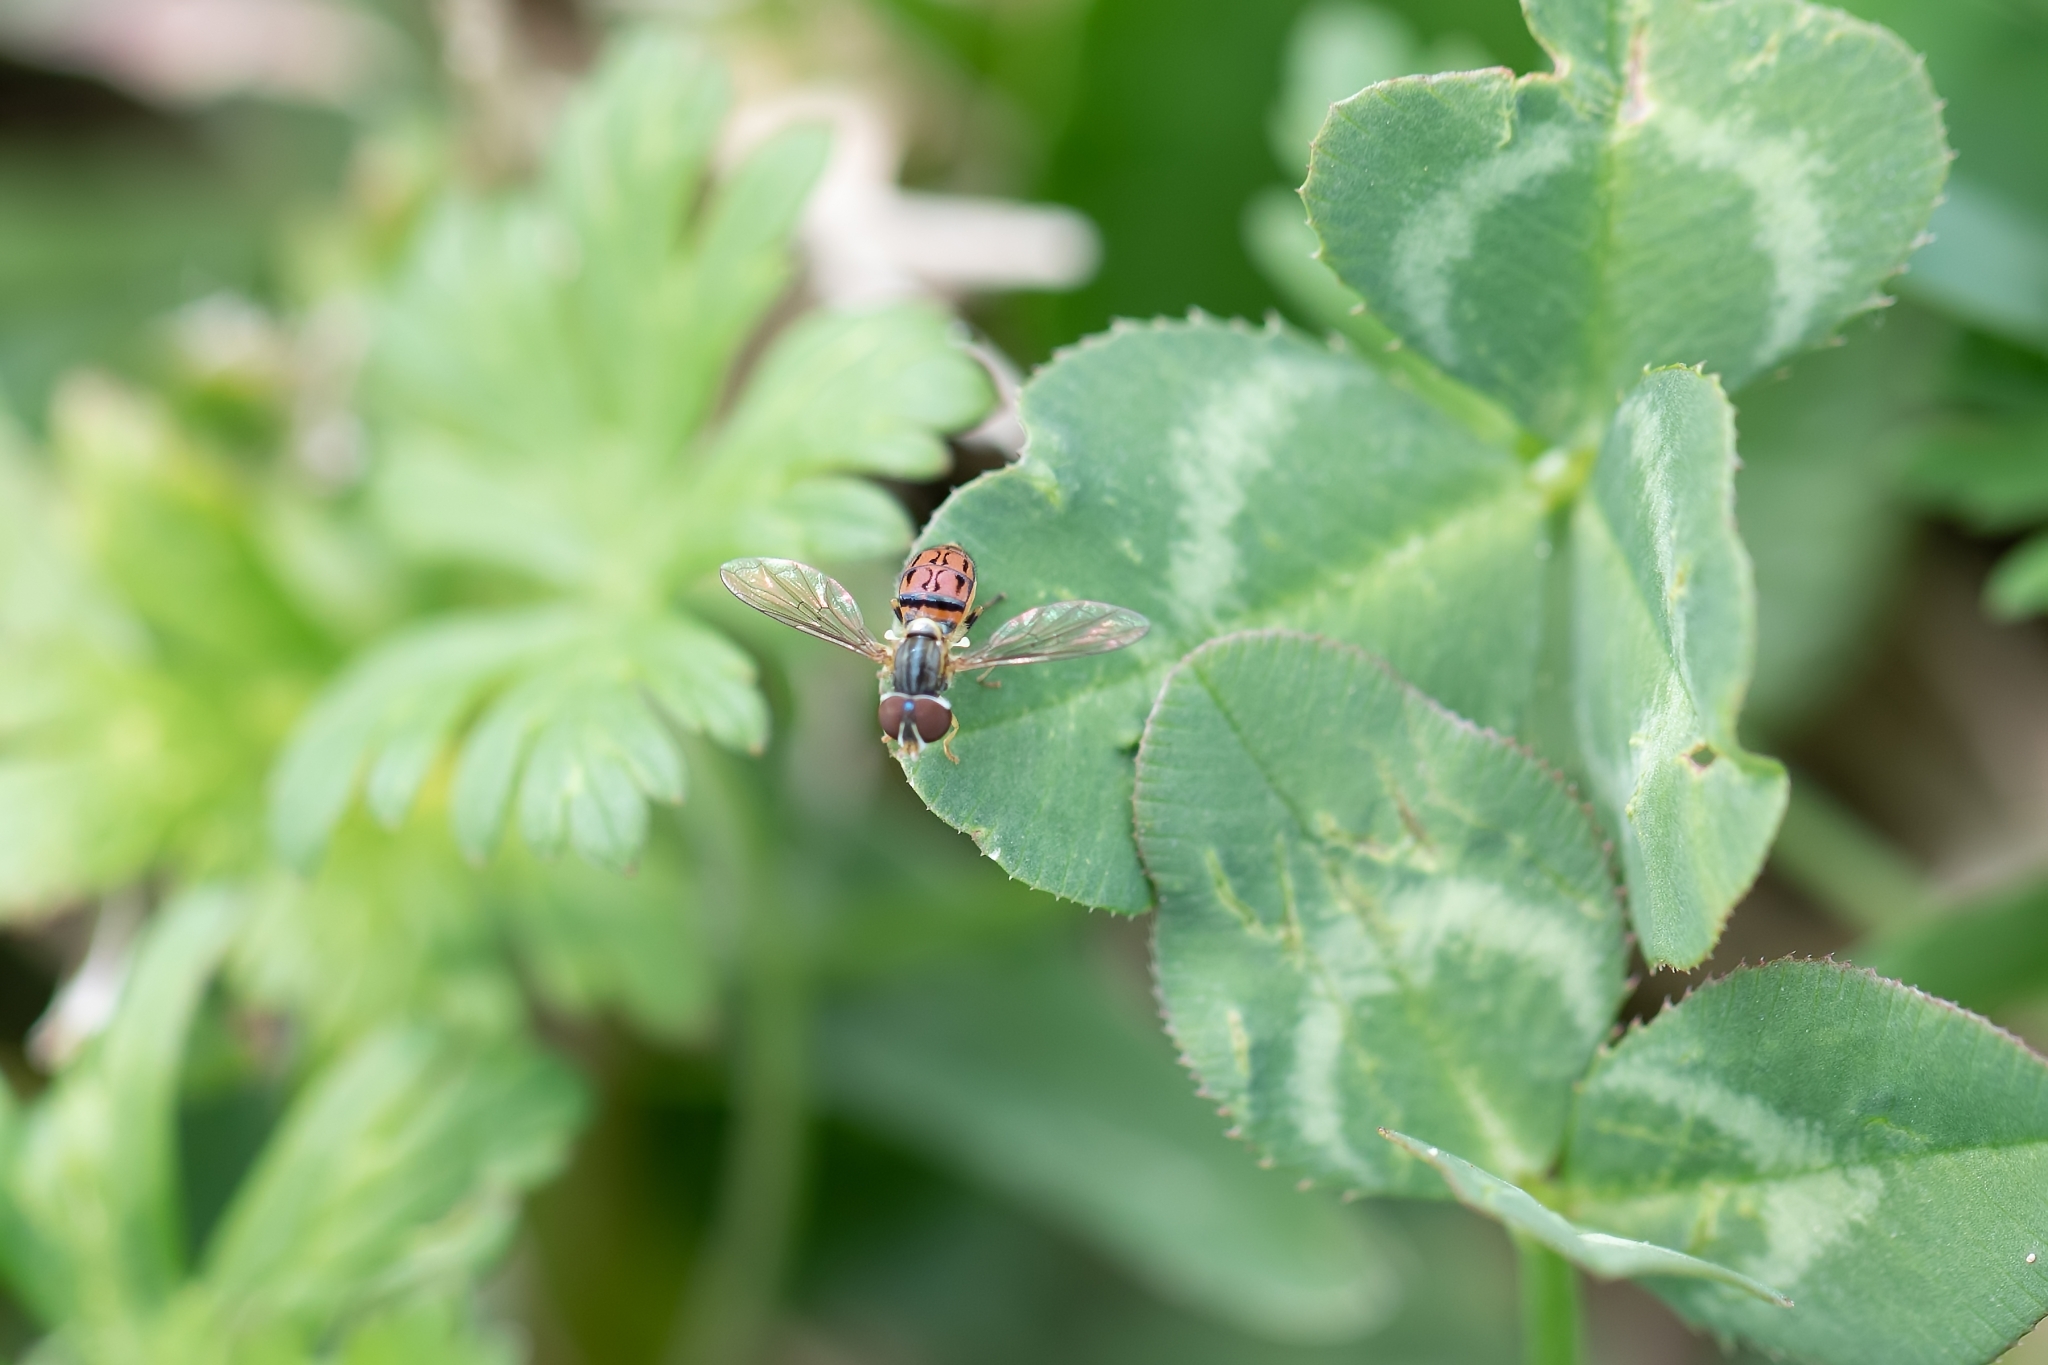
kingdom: Animalia
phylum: Arthropoda
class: Insecta
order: Diptera
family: Syrphidae
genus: Toxomerus
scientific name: Toxomerus boscii
